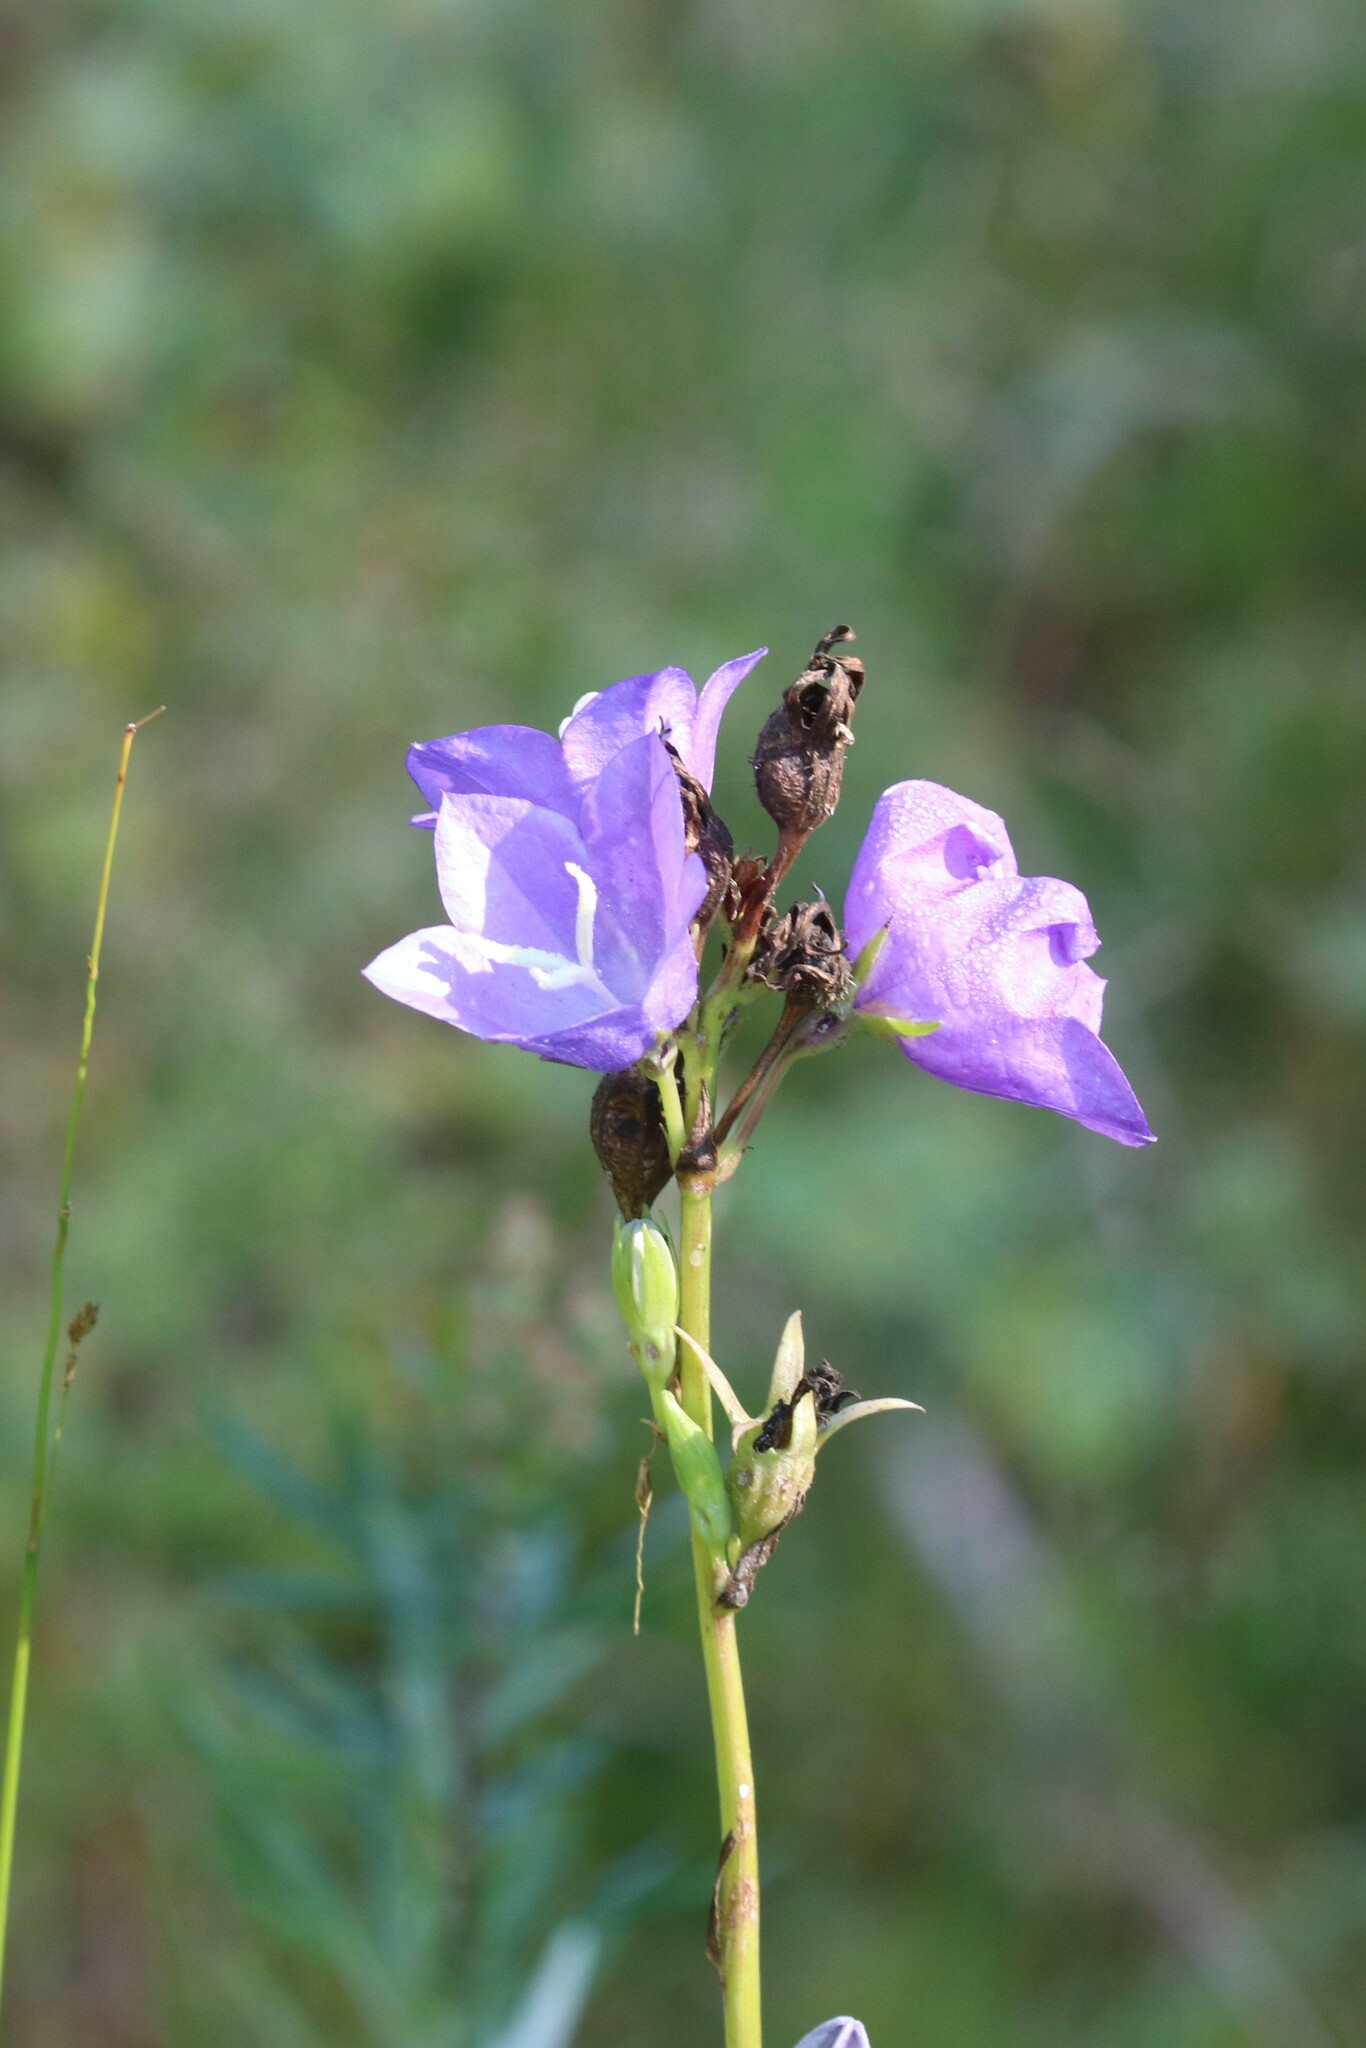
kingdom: Plantae
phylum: Tracheophyta
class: Magnoliopsida
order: Asterales
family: Campanulaceae
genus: Campanula
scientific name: Campanula persicifolia
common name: Peach-leaved bellflower
